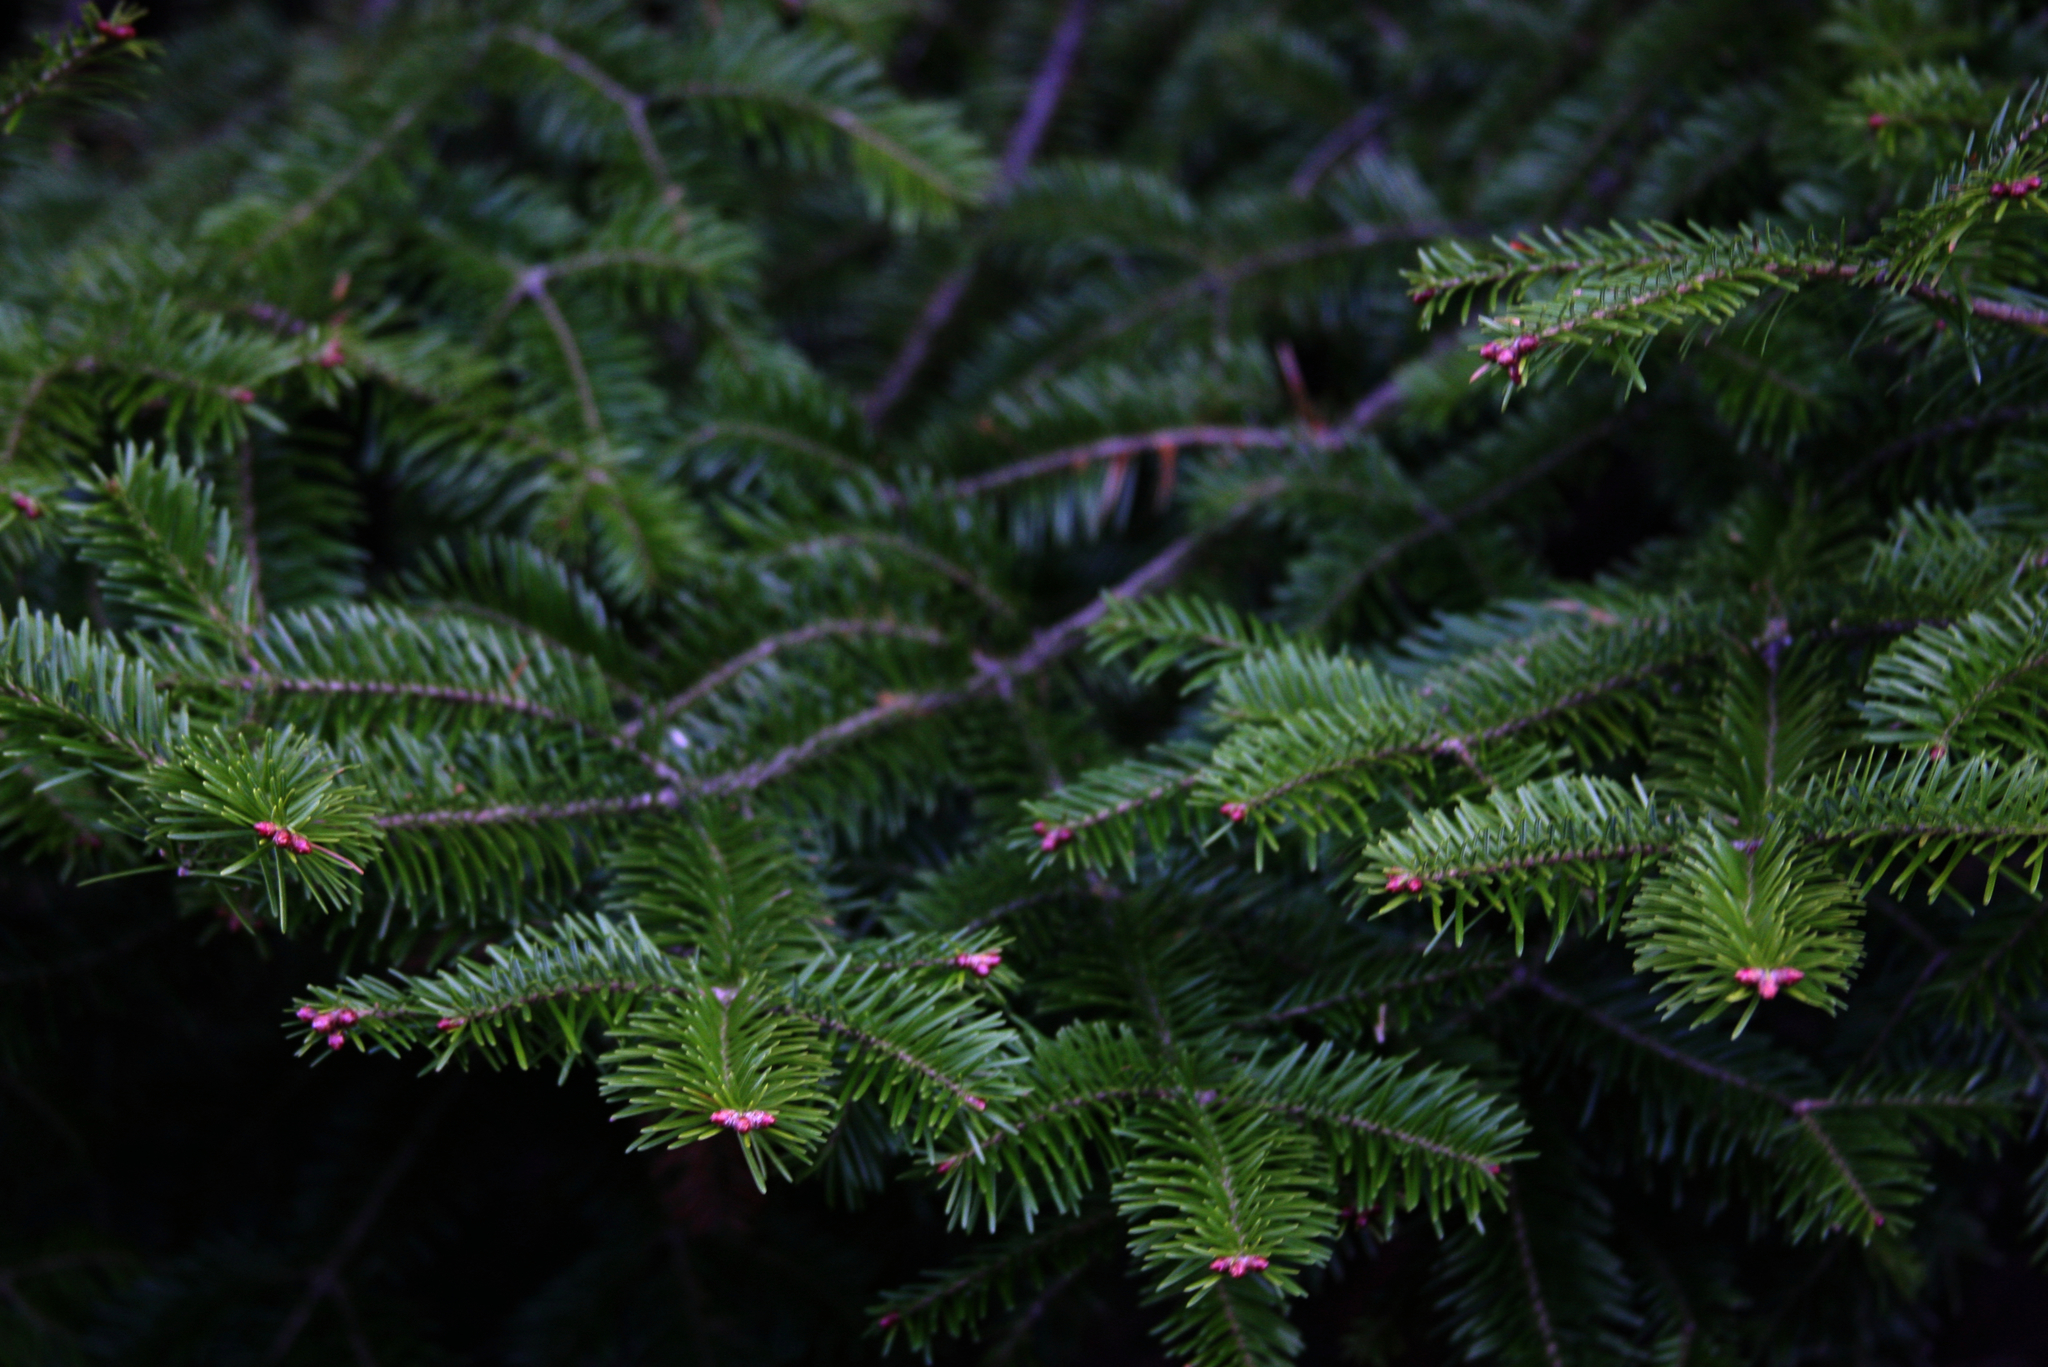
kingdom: Plantae
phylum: Tracheophyta
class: Pinopsida
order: Pinales
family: Pinaceae
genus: Abies
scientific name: Abies balsamea
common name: Balsam fir
